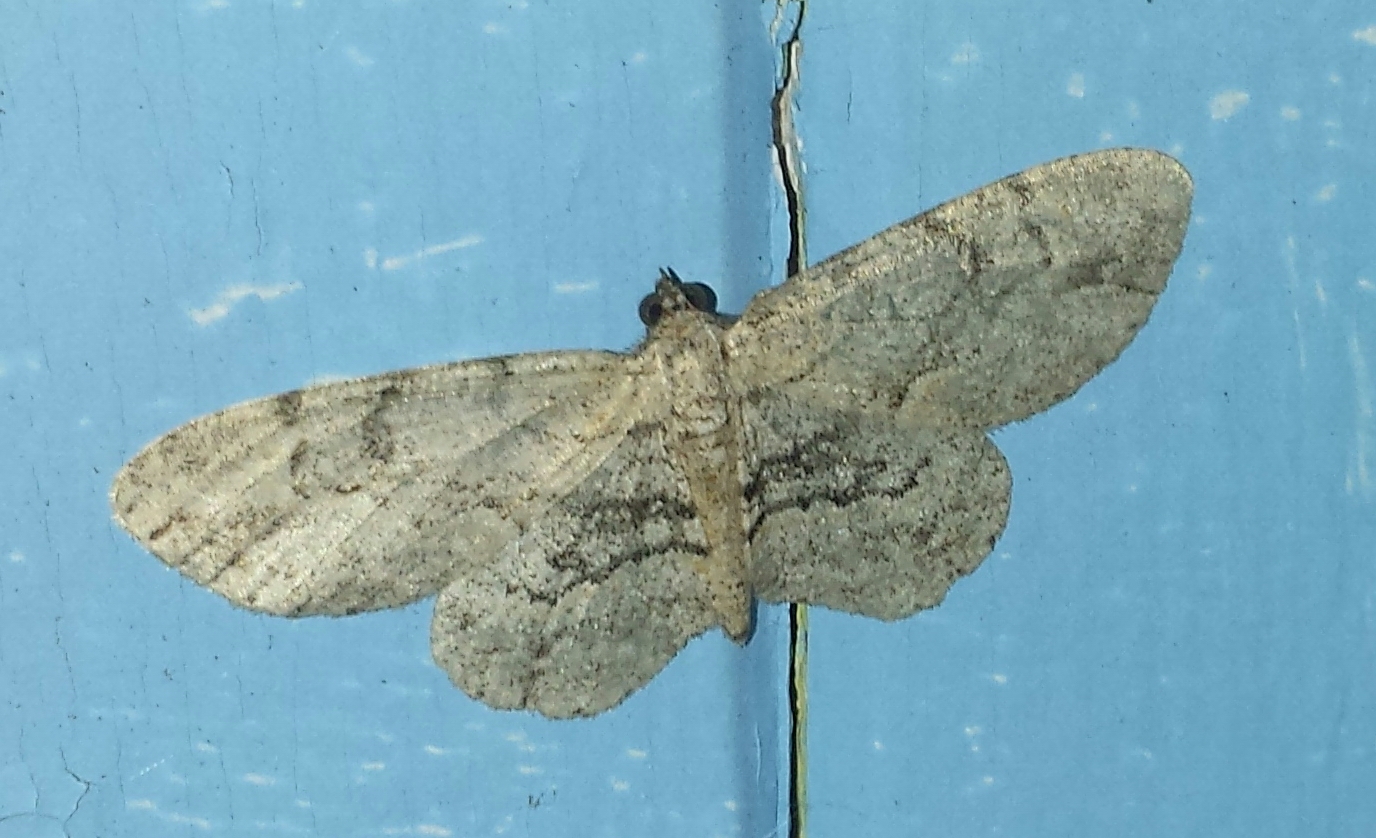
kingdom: Animalia
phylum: Arthropoda
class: Insecta
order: Lepidoptera
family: Geometridae
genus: Iridopsis
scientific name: Iridopsis larvaria
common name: Bent-line gray
